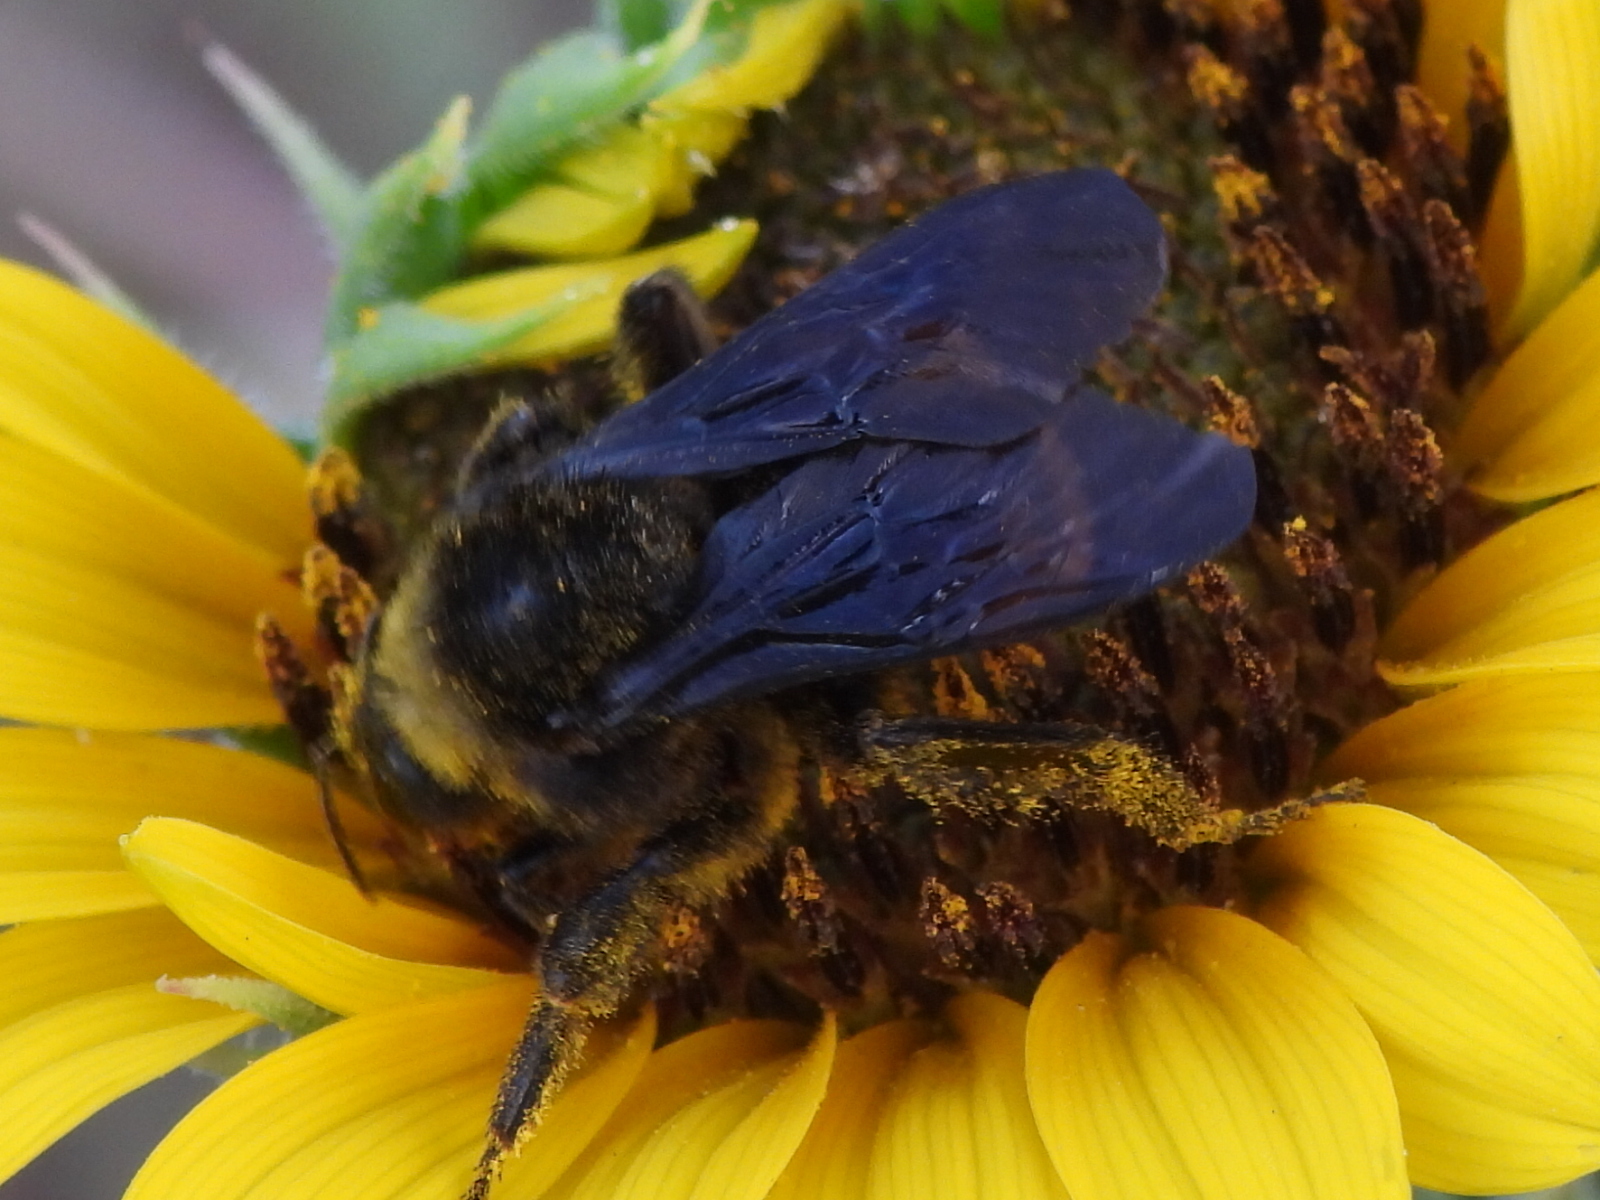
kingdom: Animalia
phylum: Arthropoda
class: Insecta
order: Hymenoptera
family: Apidae
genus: Bombus
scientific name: Bombus pensylvanicus
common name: Bumble bee
